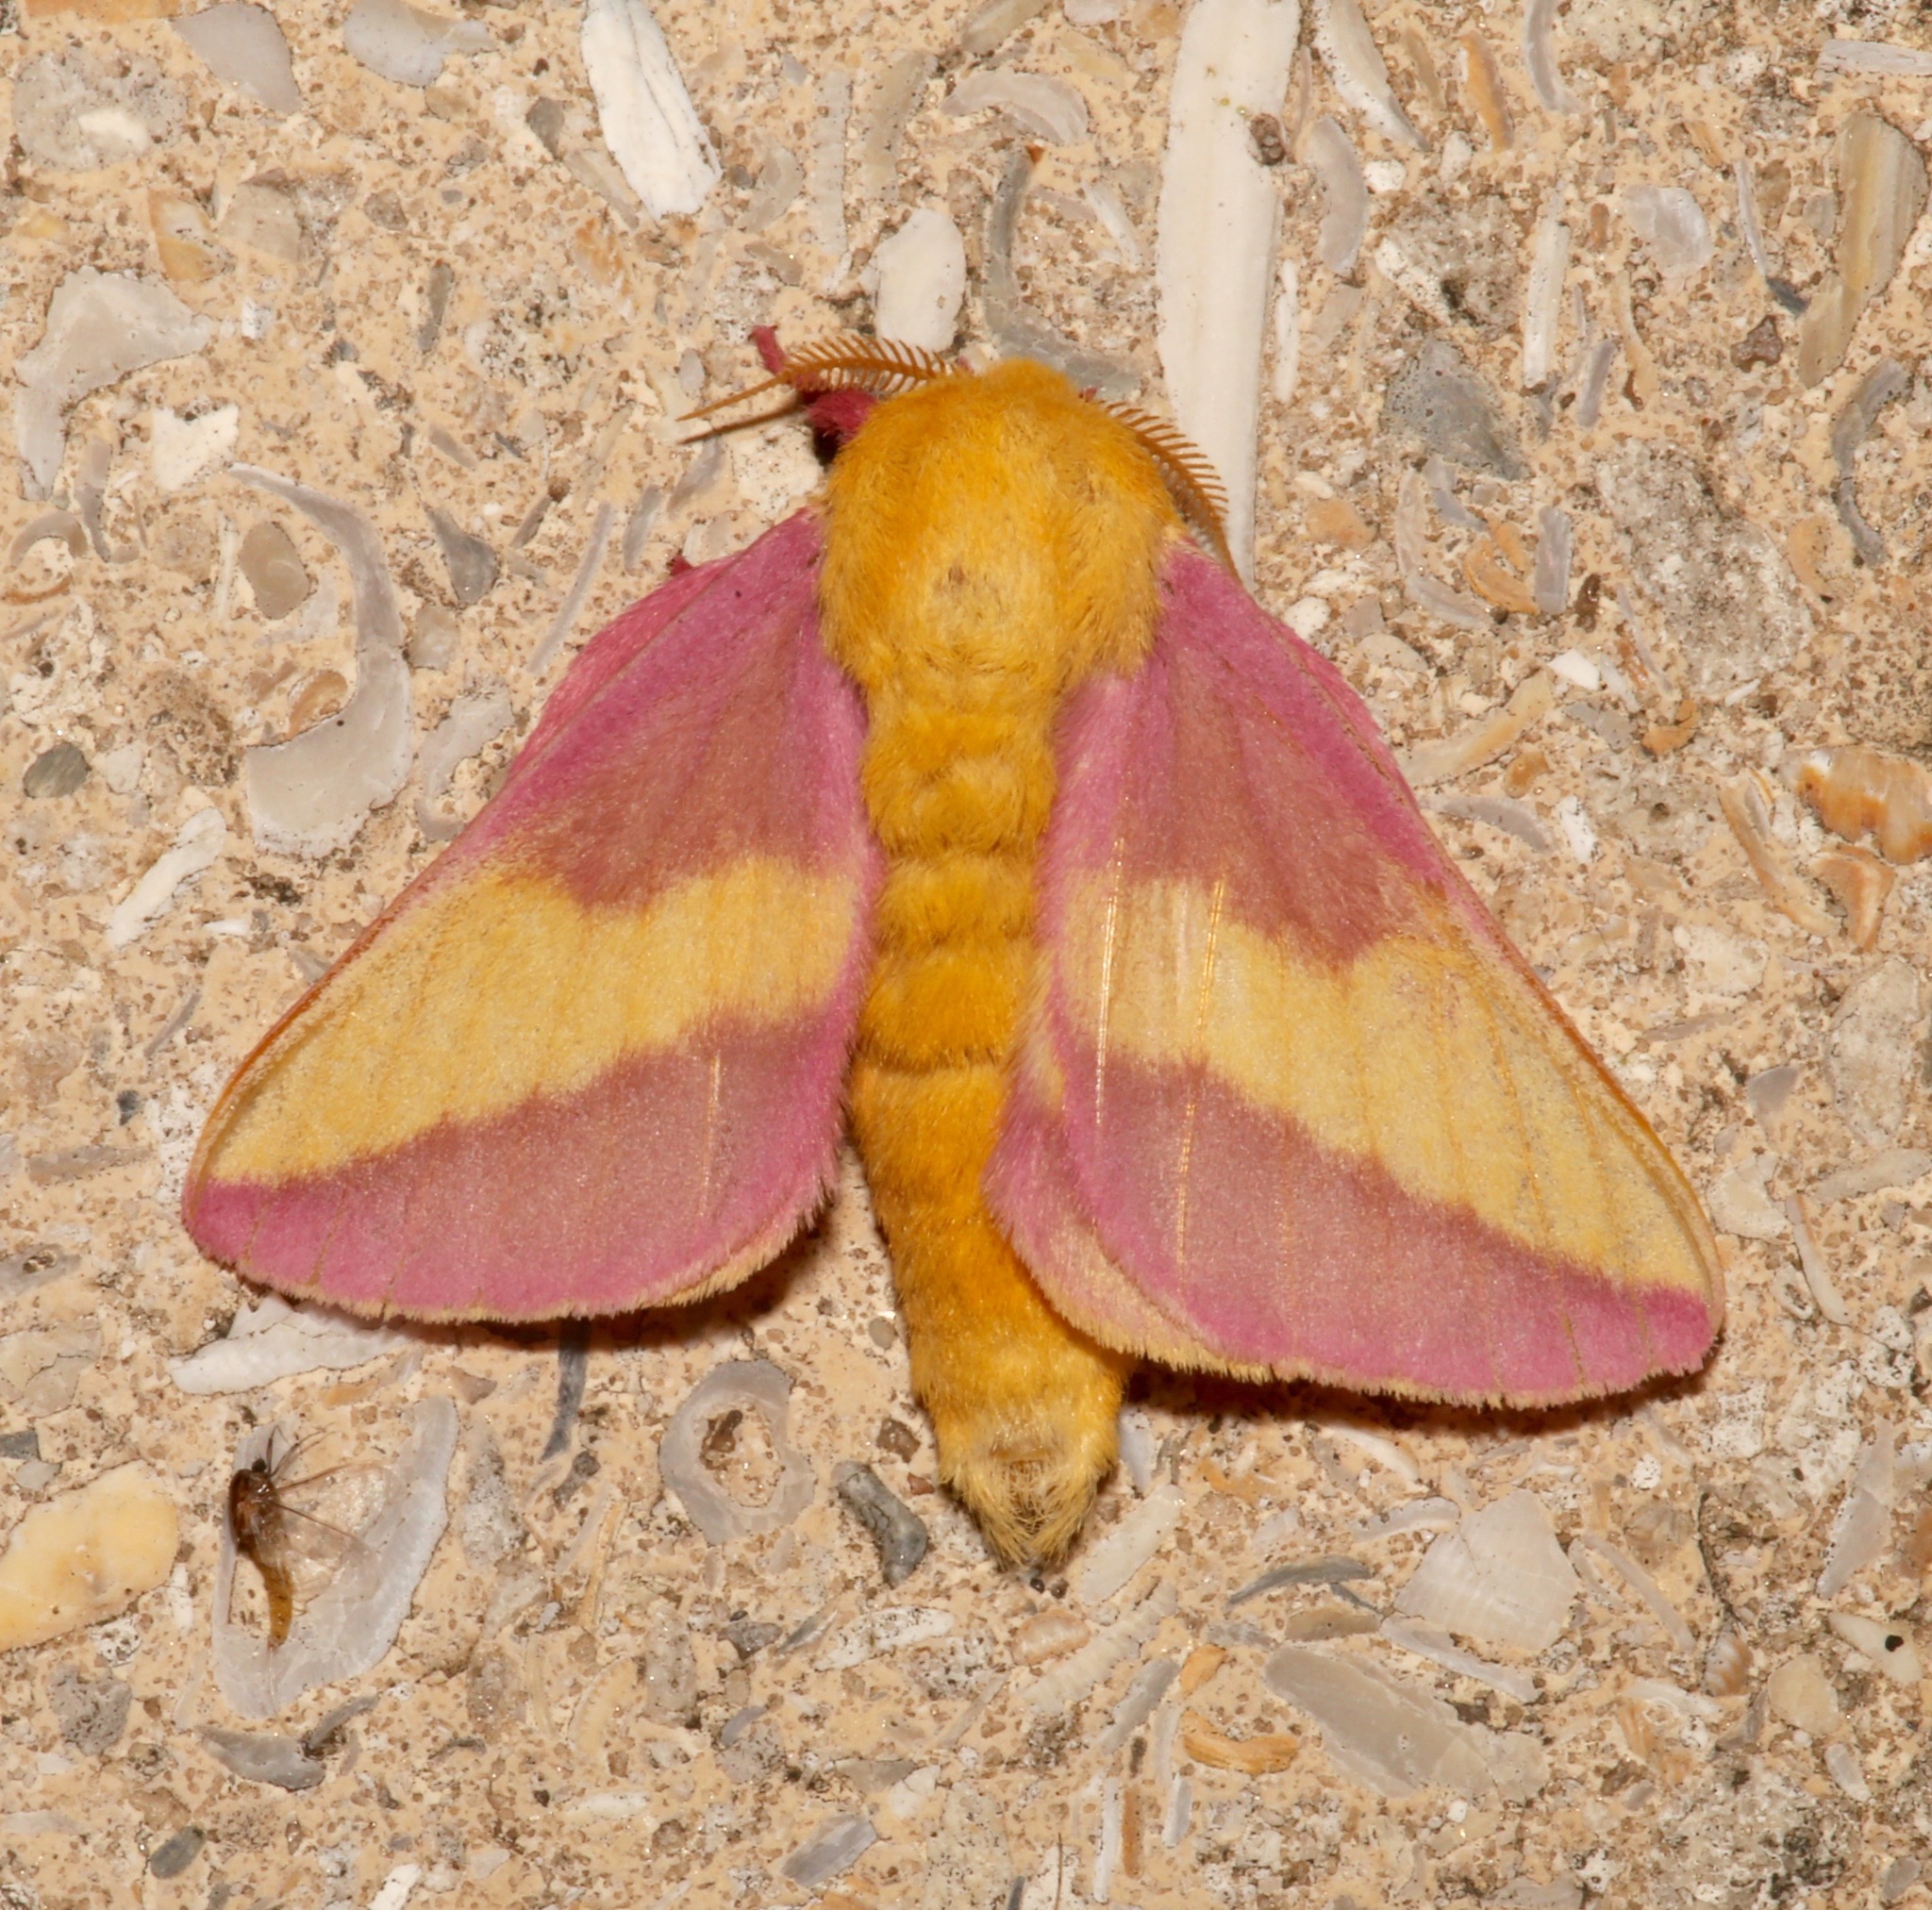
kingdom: Animalia
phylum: Arthropoda
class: Insecta
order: Lepidoptera
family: Saturniidae
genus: Dryocampa
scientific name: Dryocampa rubicunda
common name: Rosy maple moth
